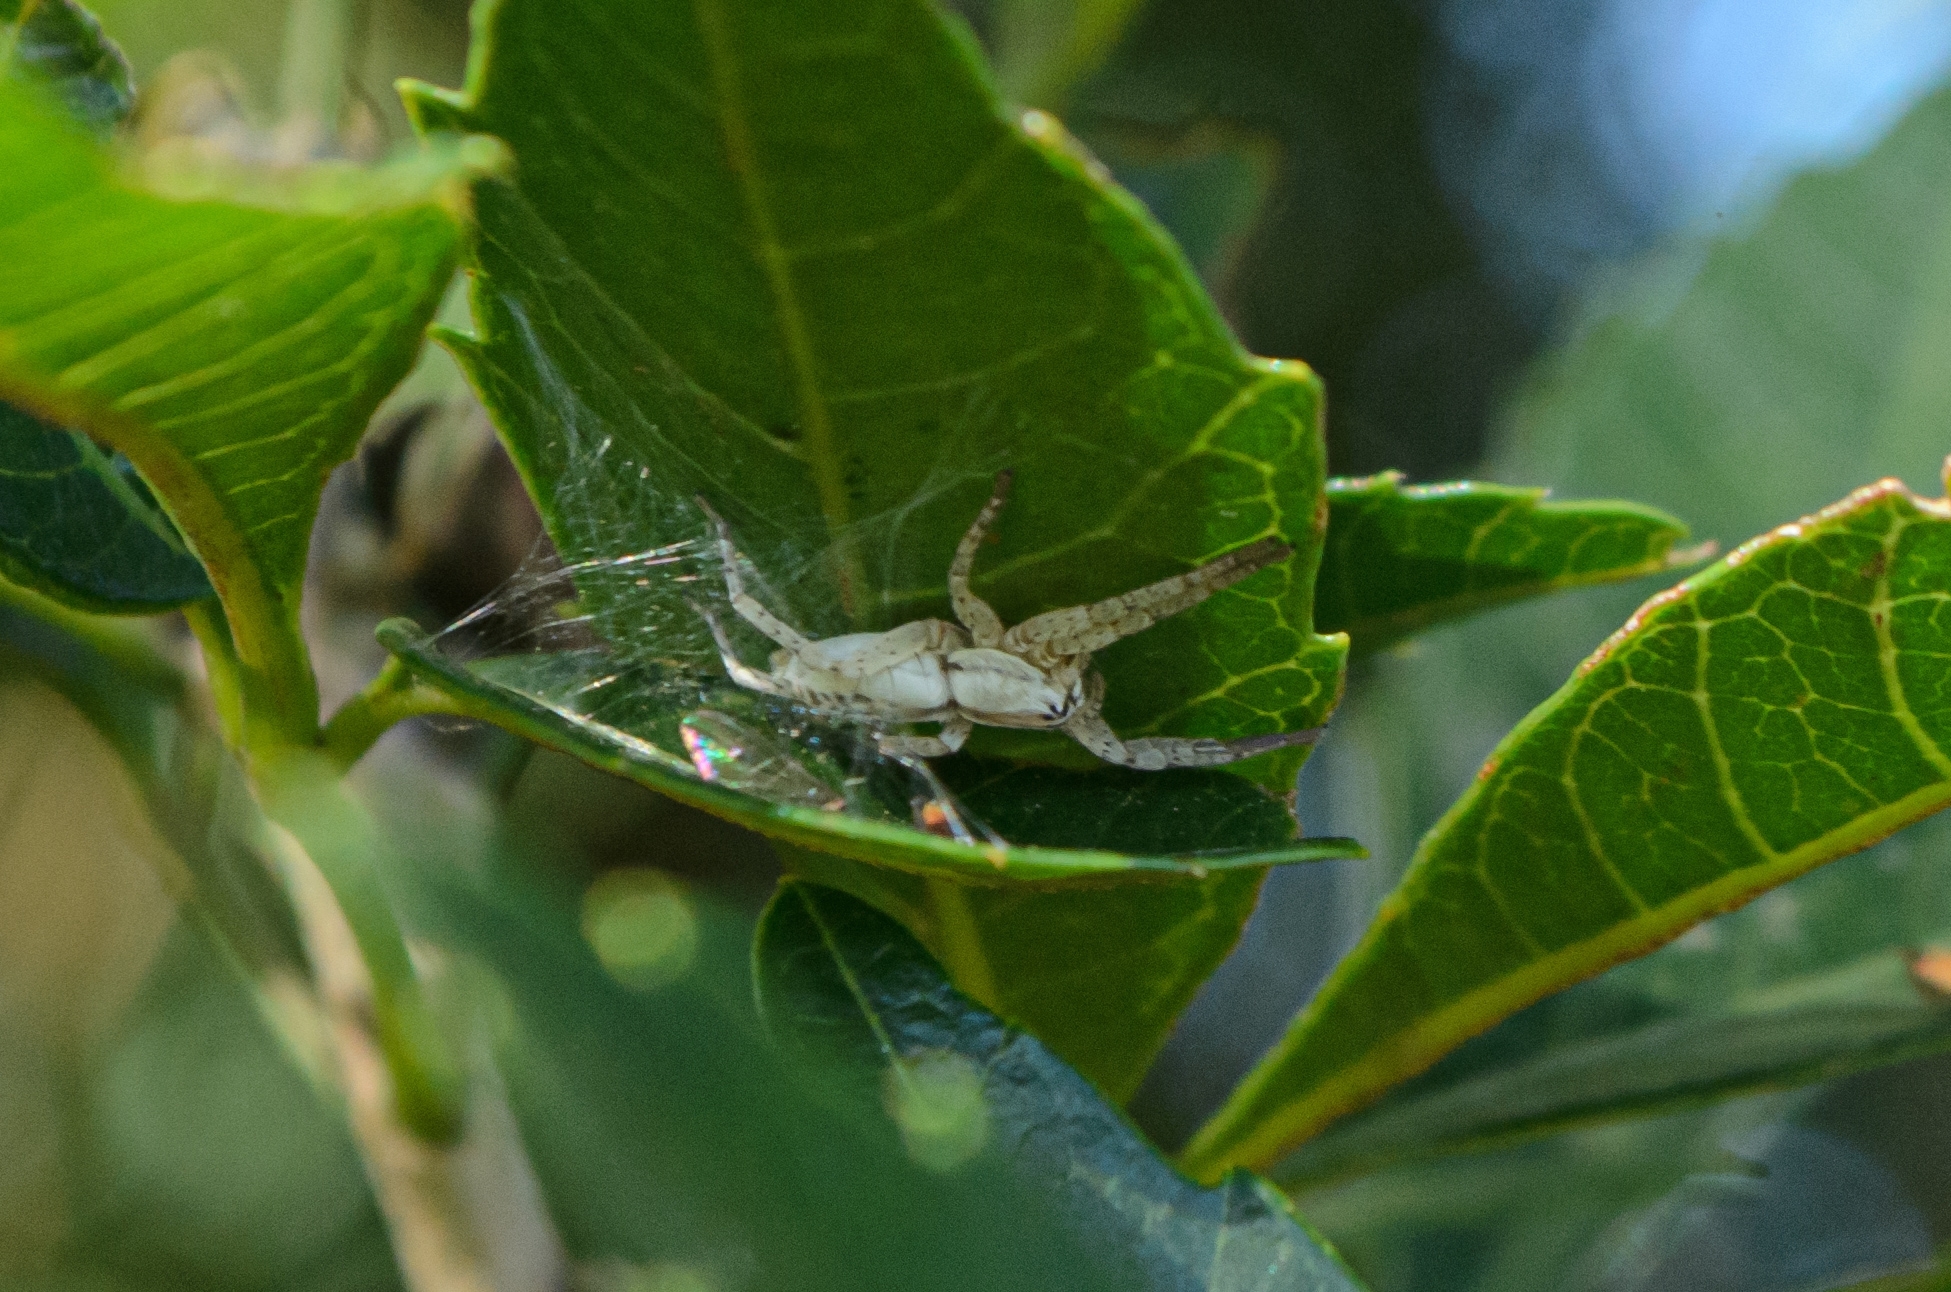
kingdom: Animalia
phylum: Arthropoda
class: Arachnida
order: Araneae
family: Anyphaenidae
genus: Arachosia
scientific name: Arachosia praesignis
